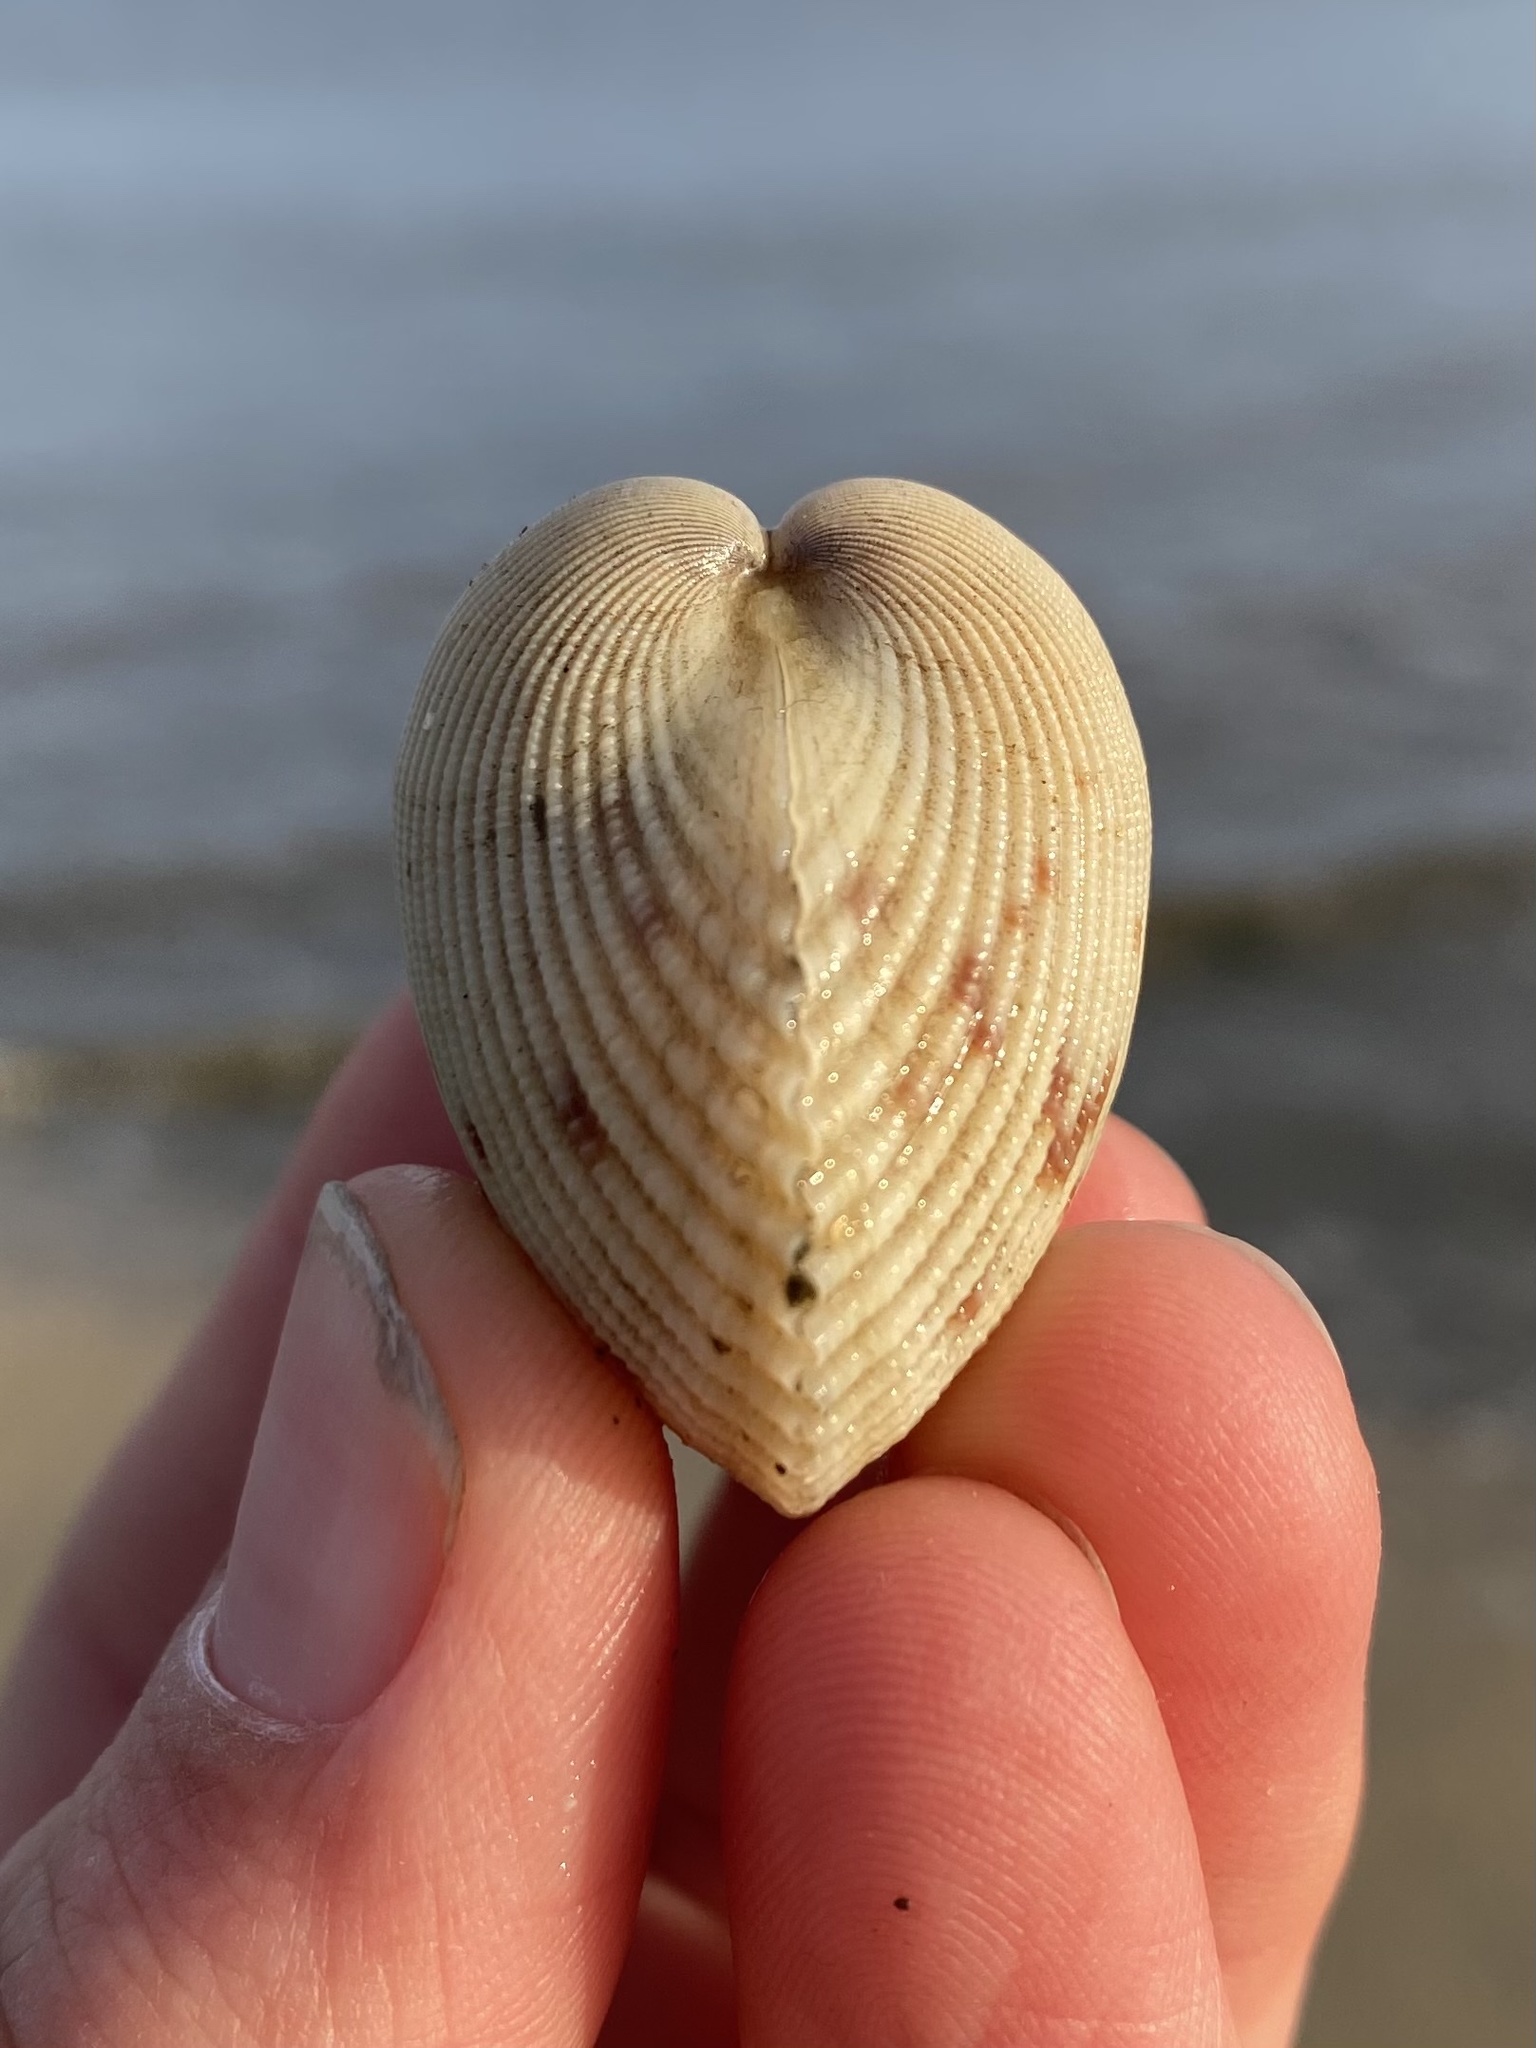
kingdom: Animalia
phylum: Mollusca
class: Bivalvia
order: Cardiida
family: Cardiidae
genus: Clinocardium
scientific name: Clinocardium nuttallii
